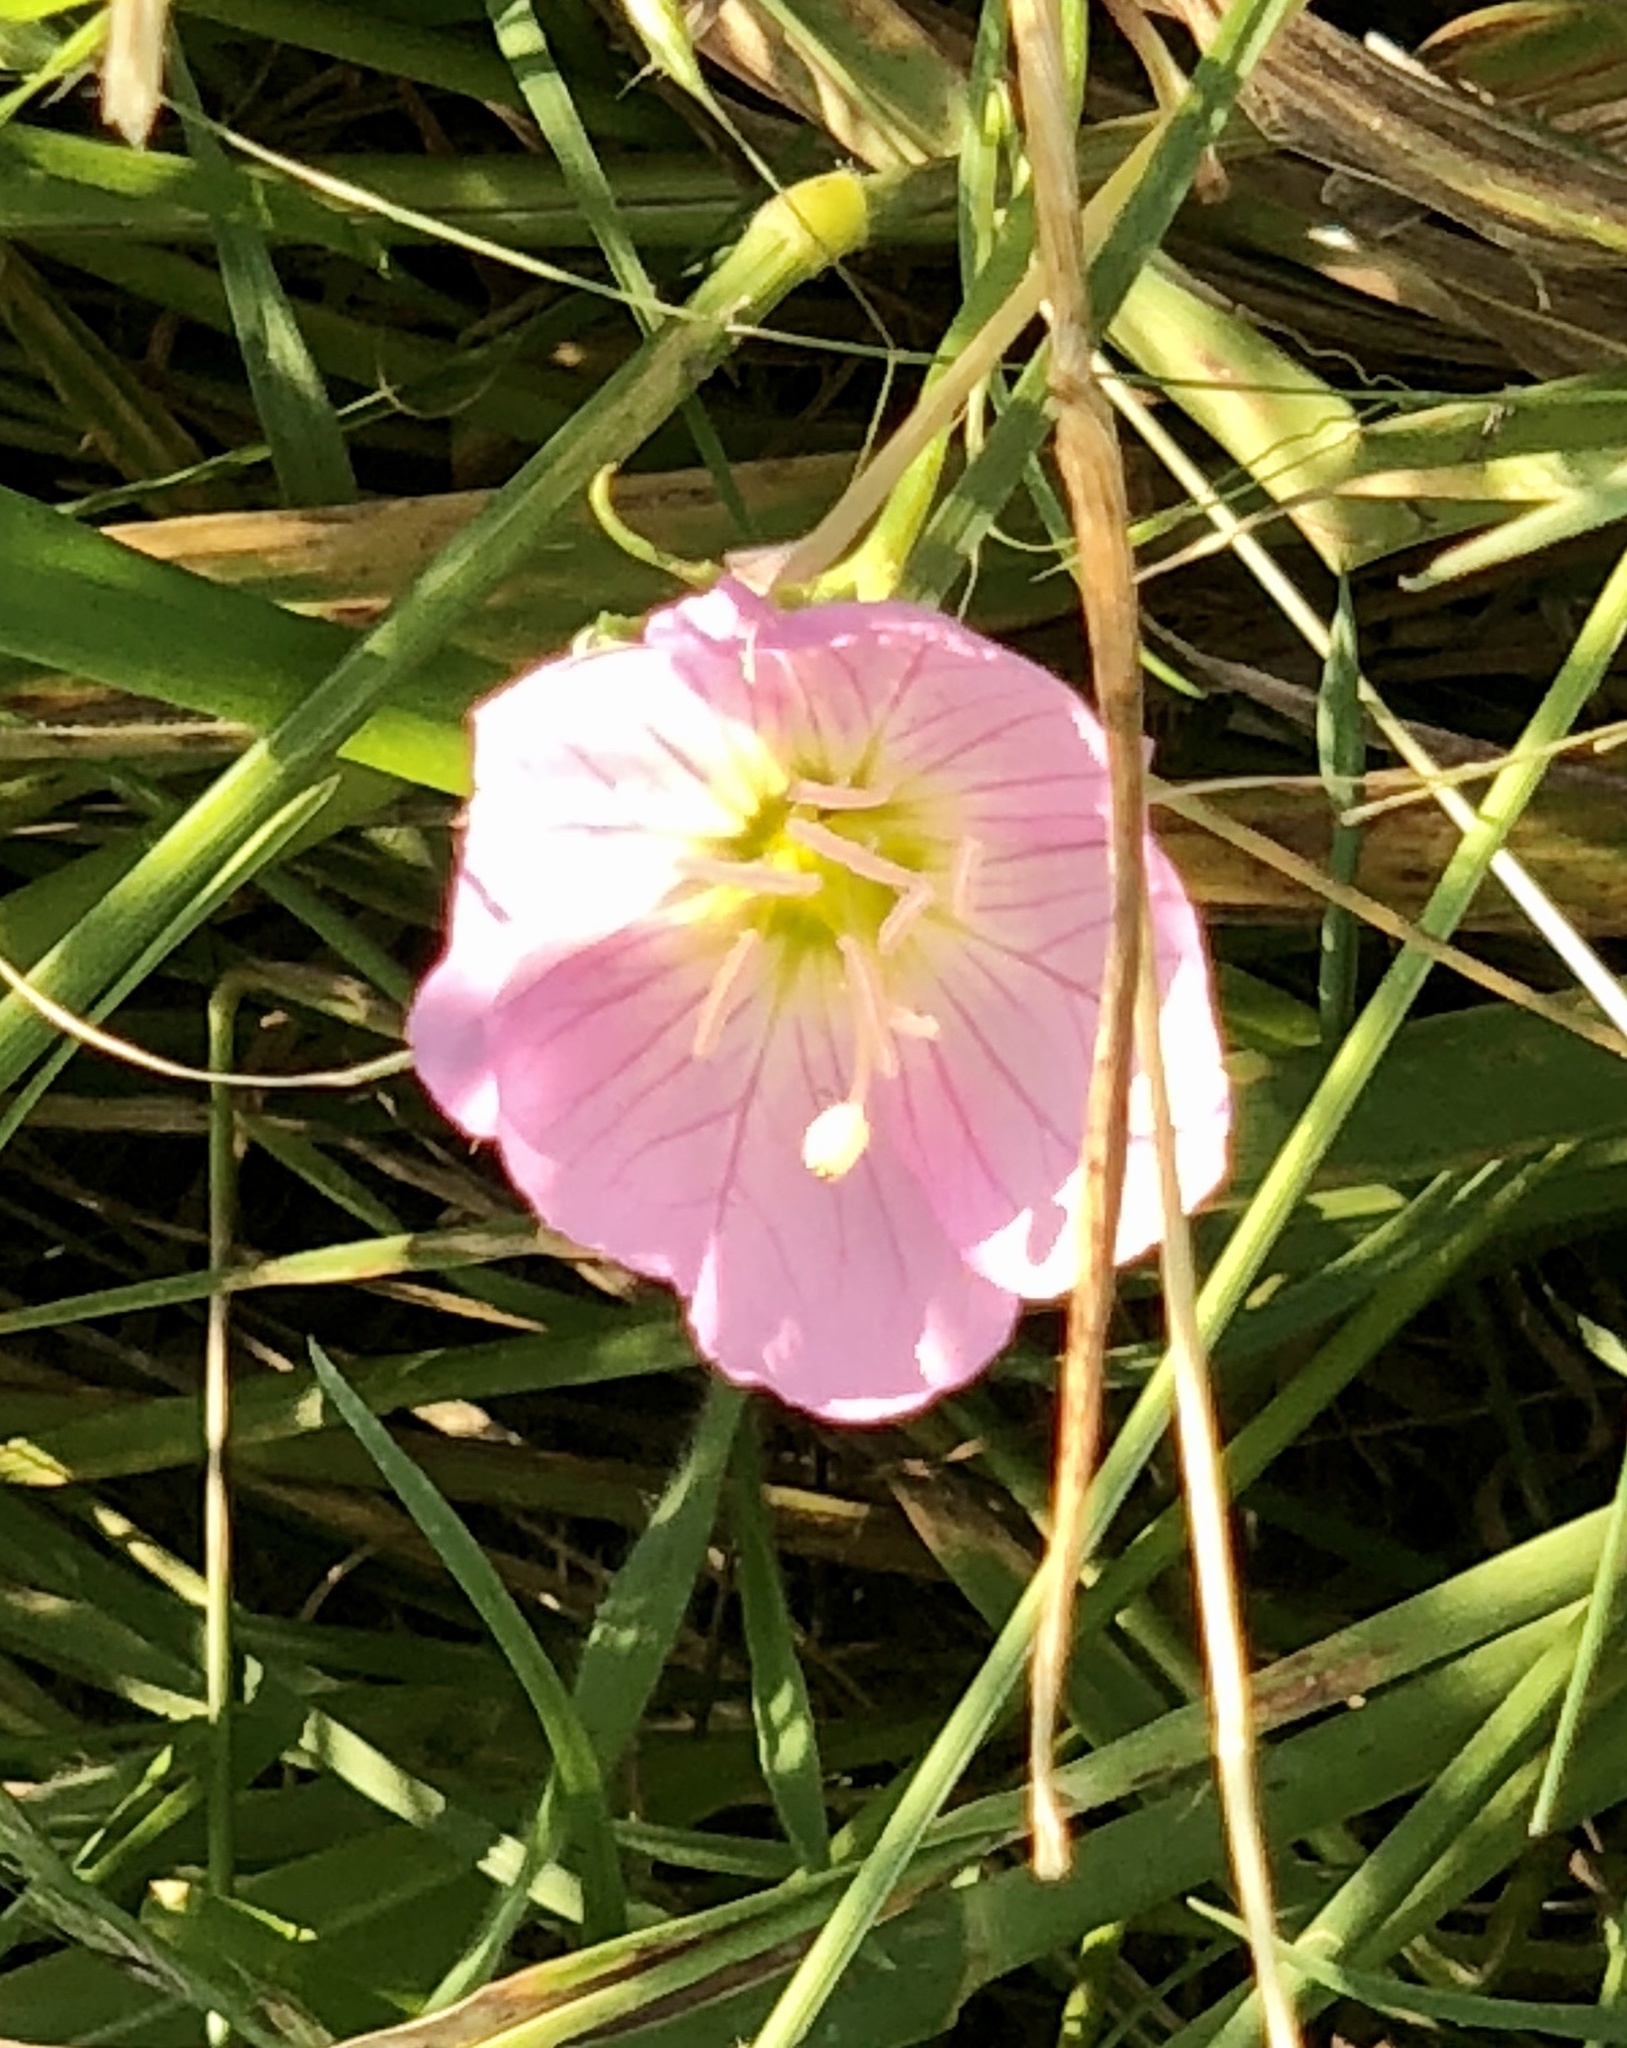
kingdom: Plantae
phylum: Tracheophyta
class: Magnoliopsida
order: Myrtales
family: Onagraceae
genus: Oenothera
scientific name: Oenothera speciosa
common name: White evening-primrose
